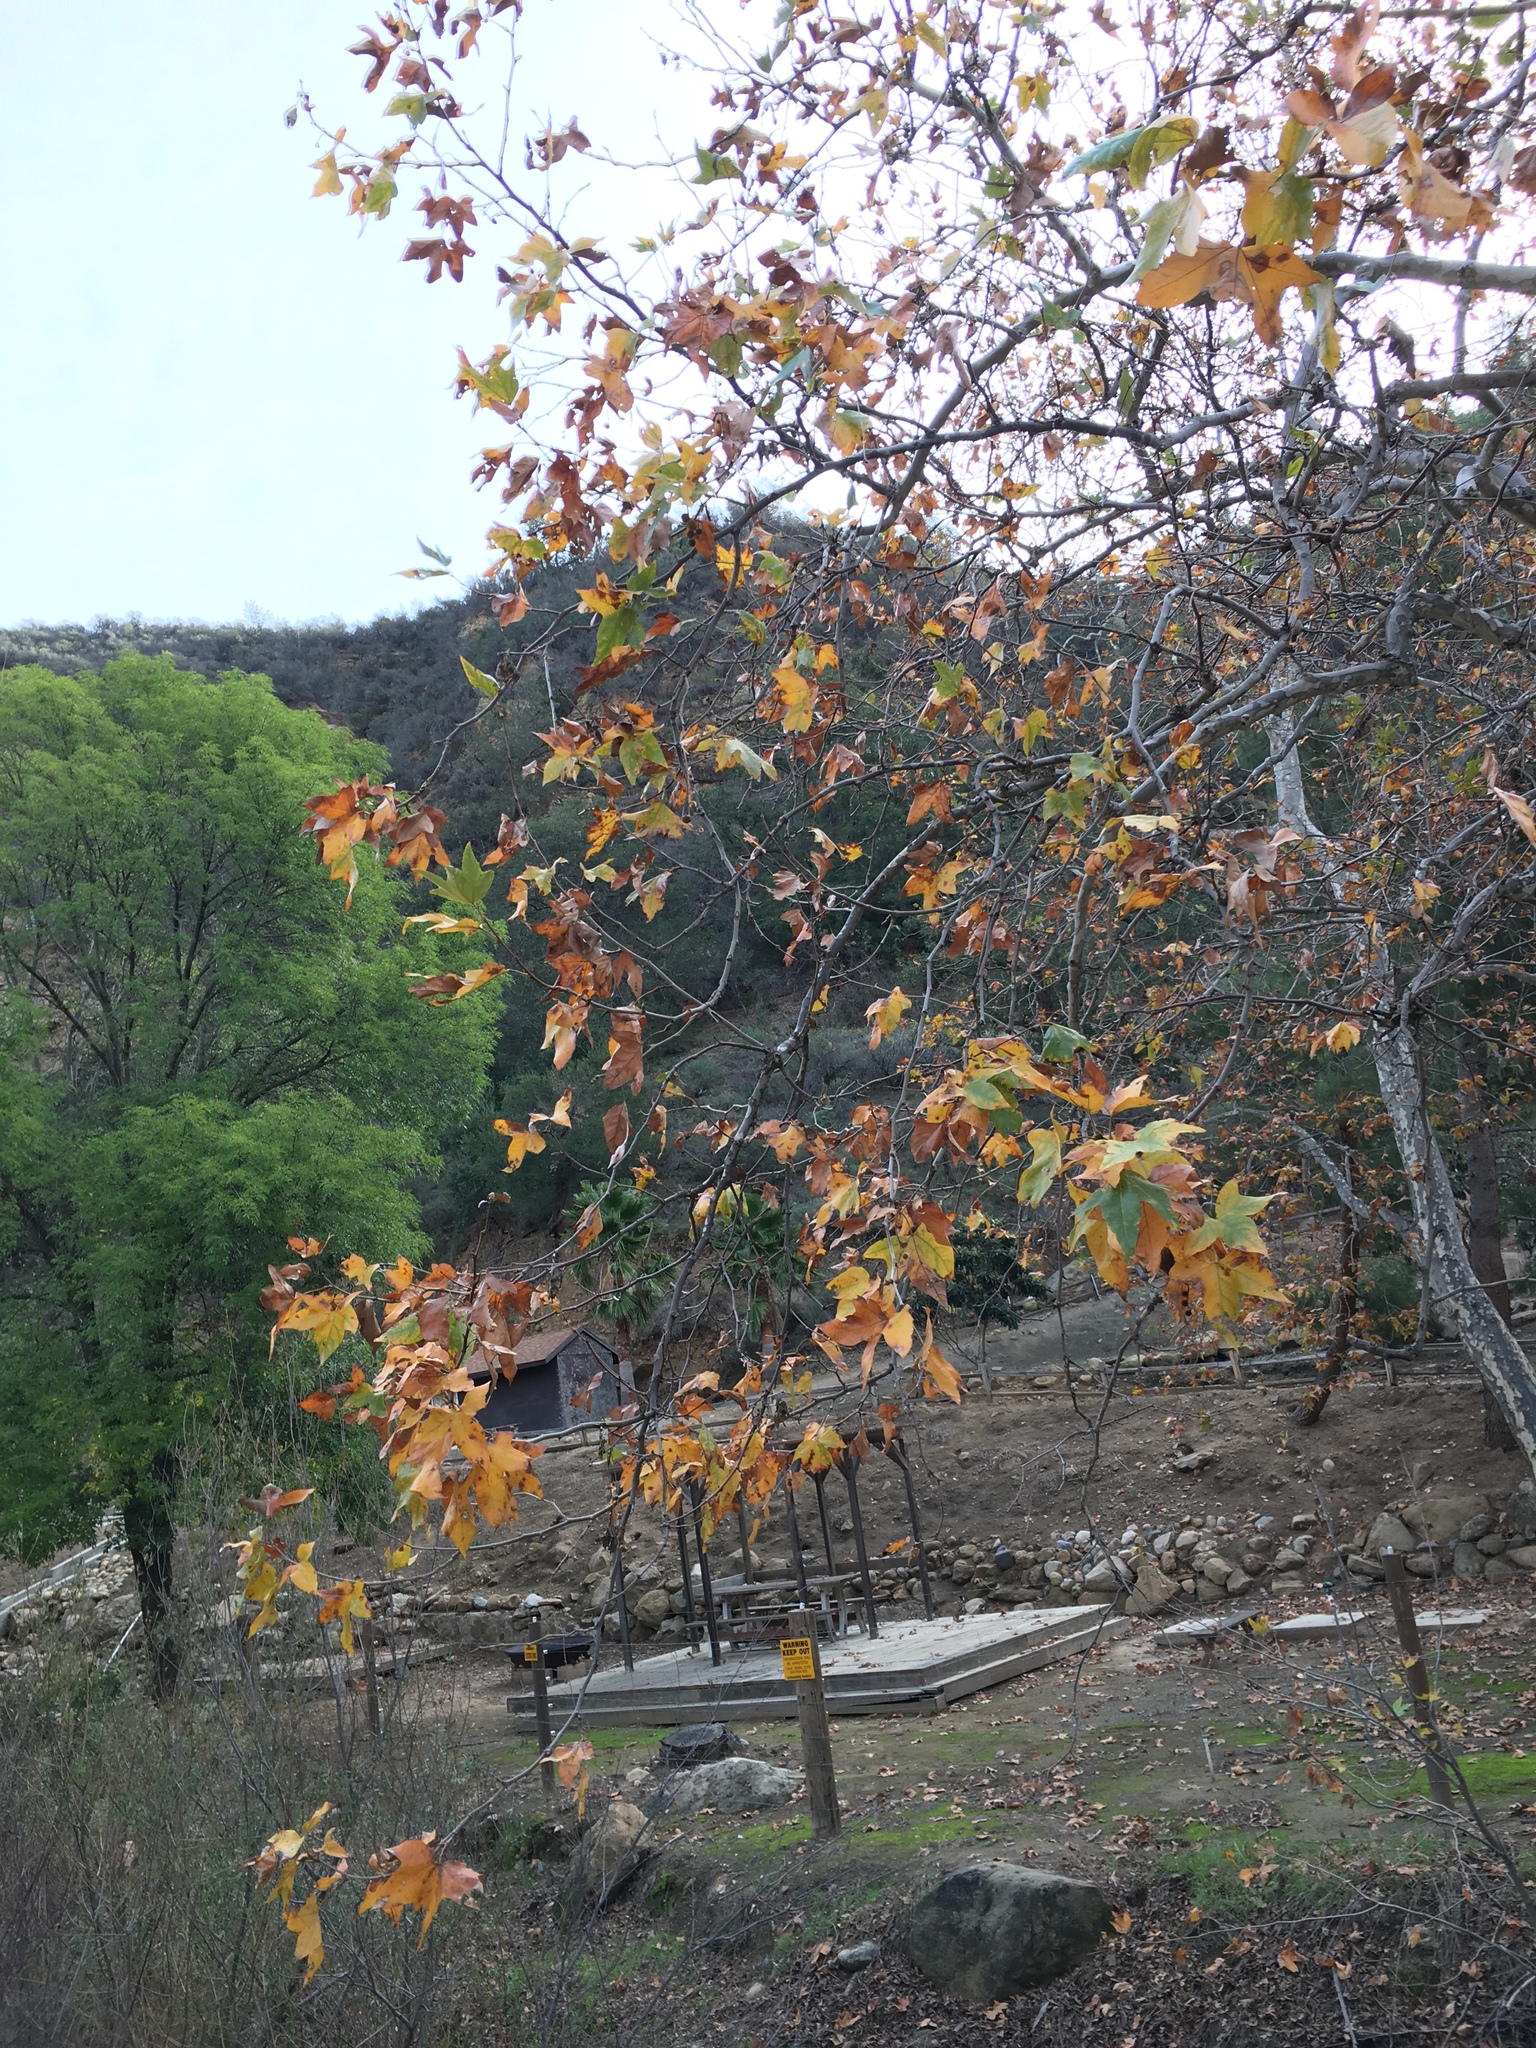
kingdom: Plantae
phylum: Tracheophyta
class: Magnoliopsida
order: Proteales
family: Platanaceae
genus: Platanus
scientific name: Platanus racemosa
